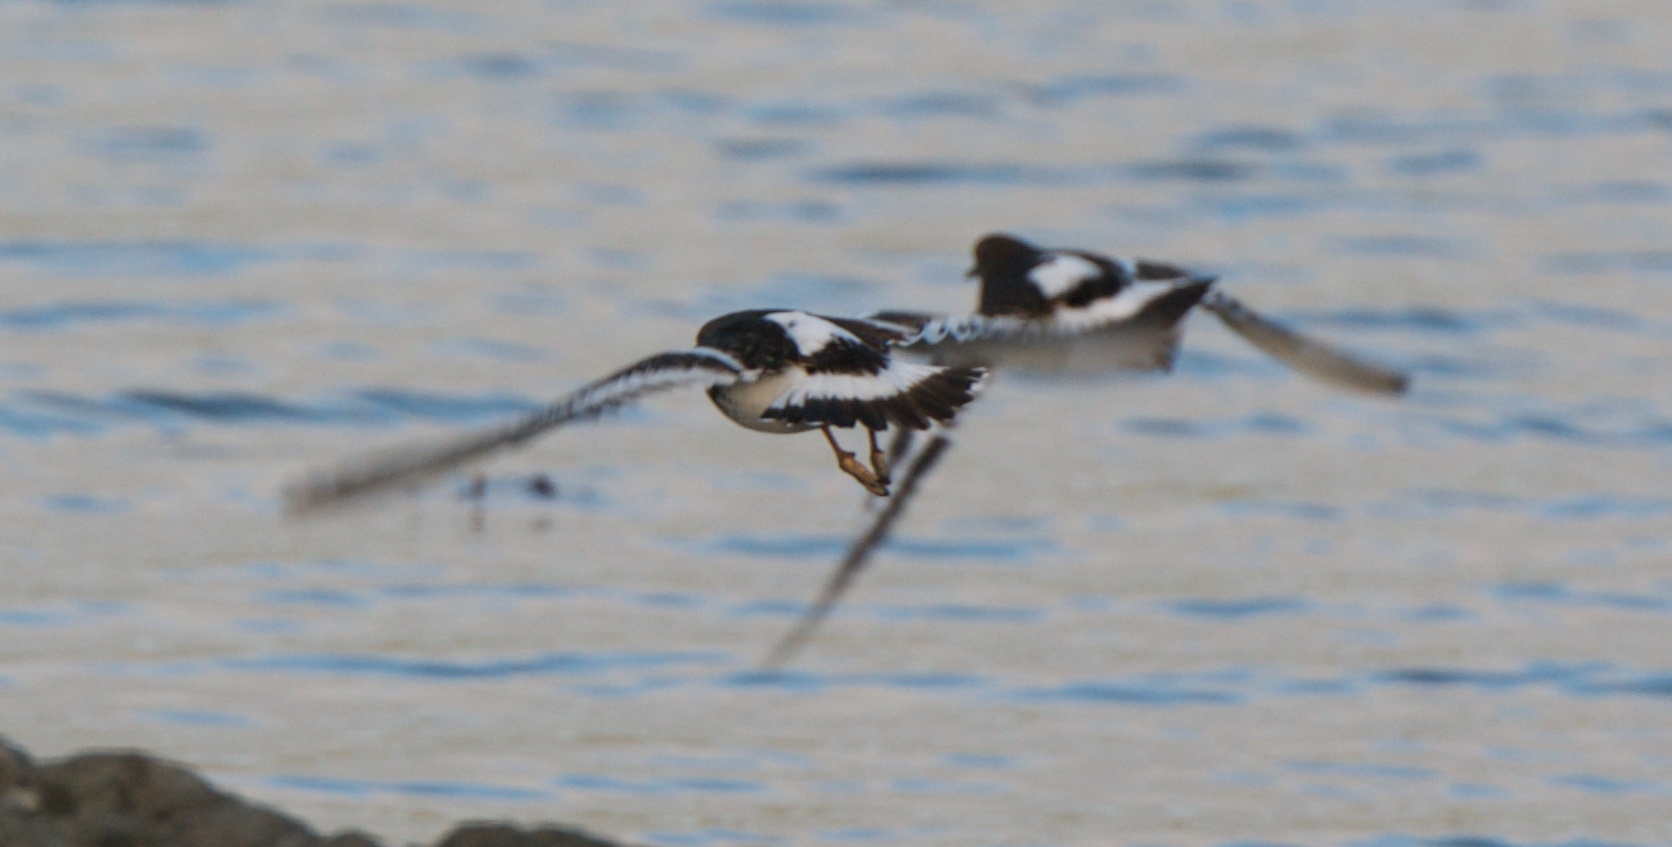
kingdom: Animalia
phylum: Chordata
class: Aves
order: Charadriiformes
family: Scolopacidae
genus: Arenaria
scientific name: Arenaria melanocephala
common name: Black turnstone
